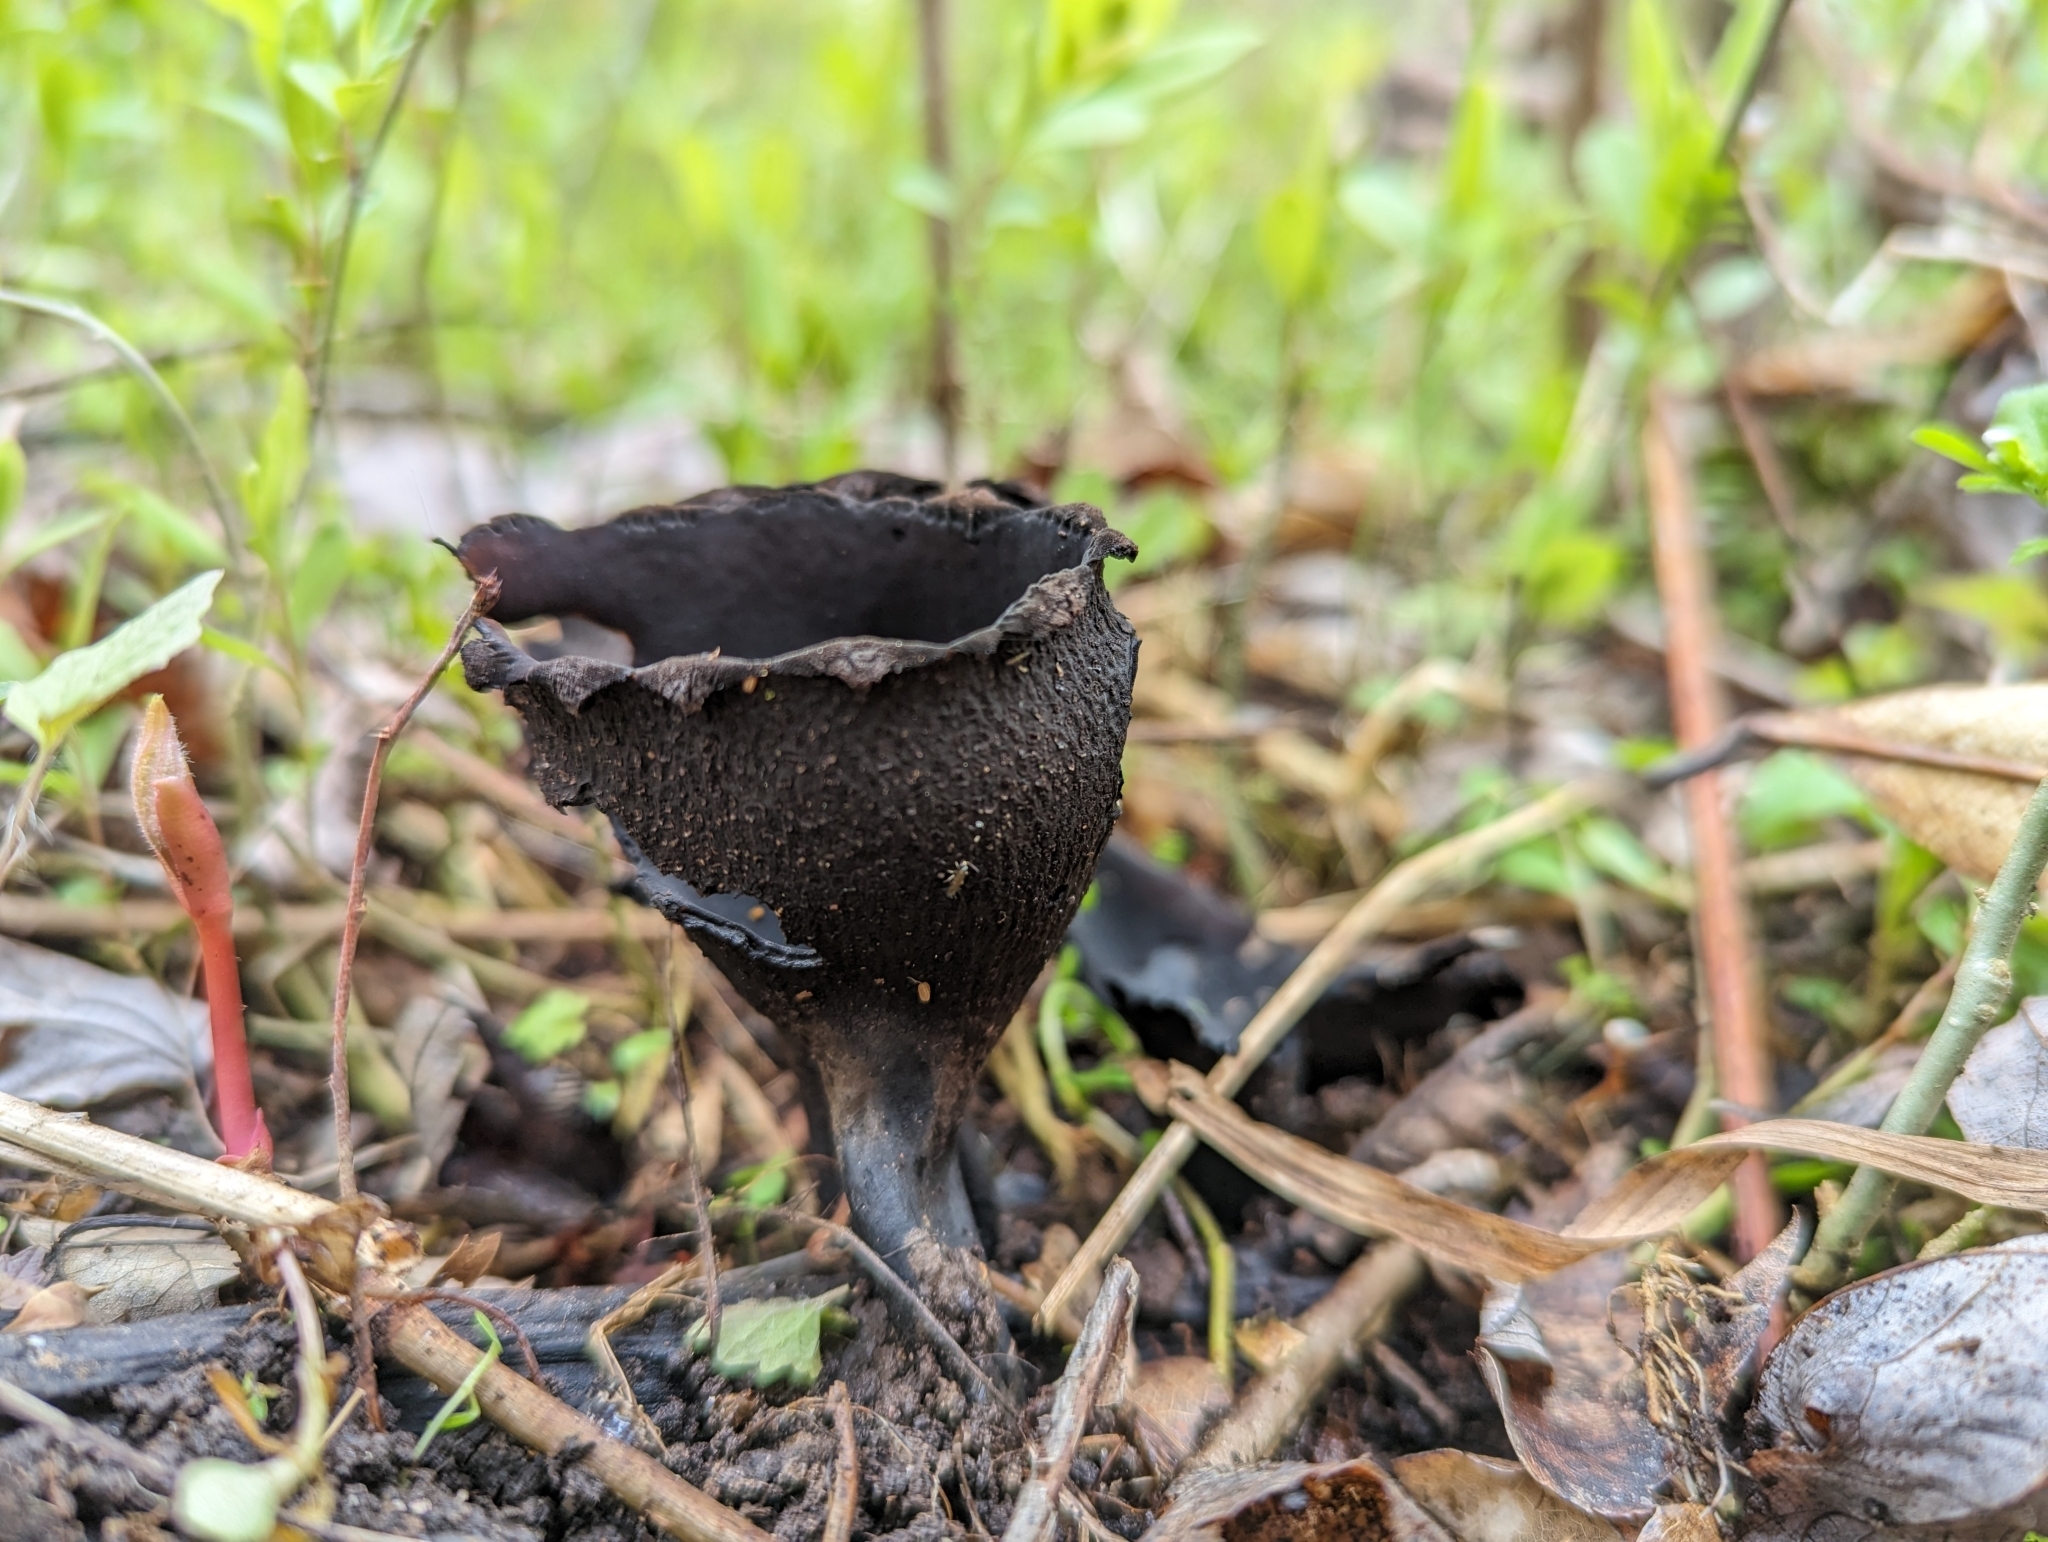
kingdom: Fungi
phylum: Ascomycota
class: Pezizomycetes
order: Pezizales
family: Sarcosomataceae
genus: Urnula
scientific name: Urnula craterium
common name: Devil's urn
